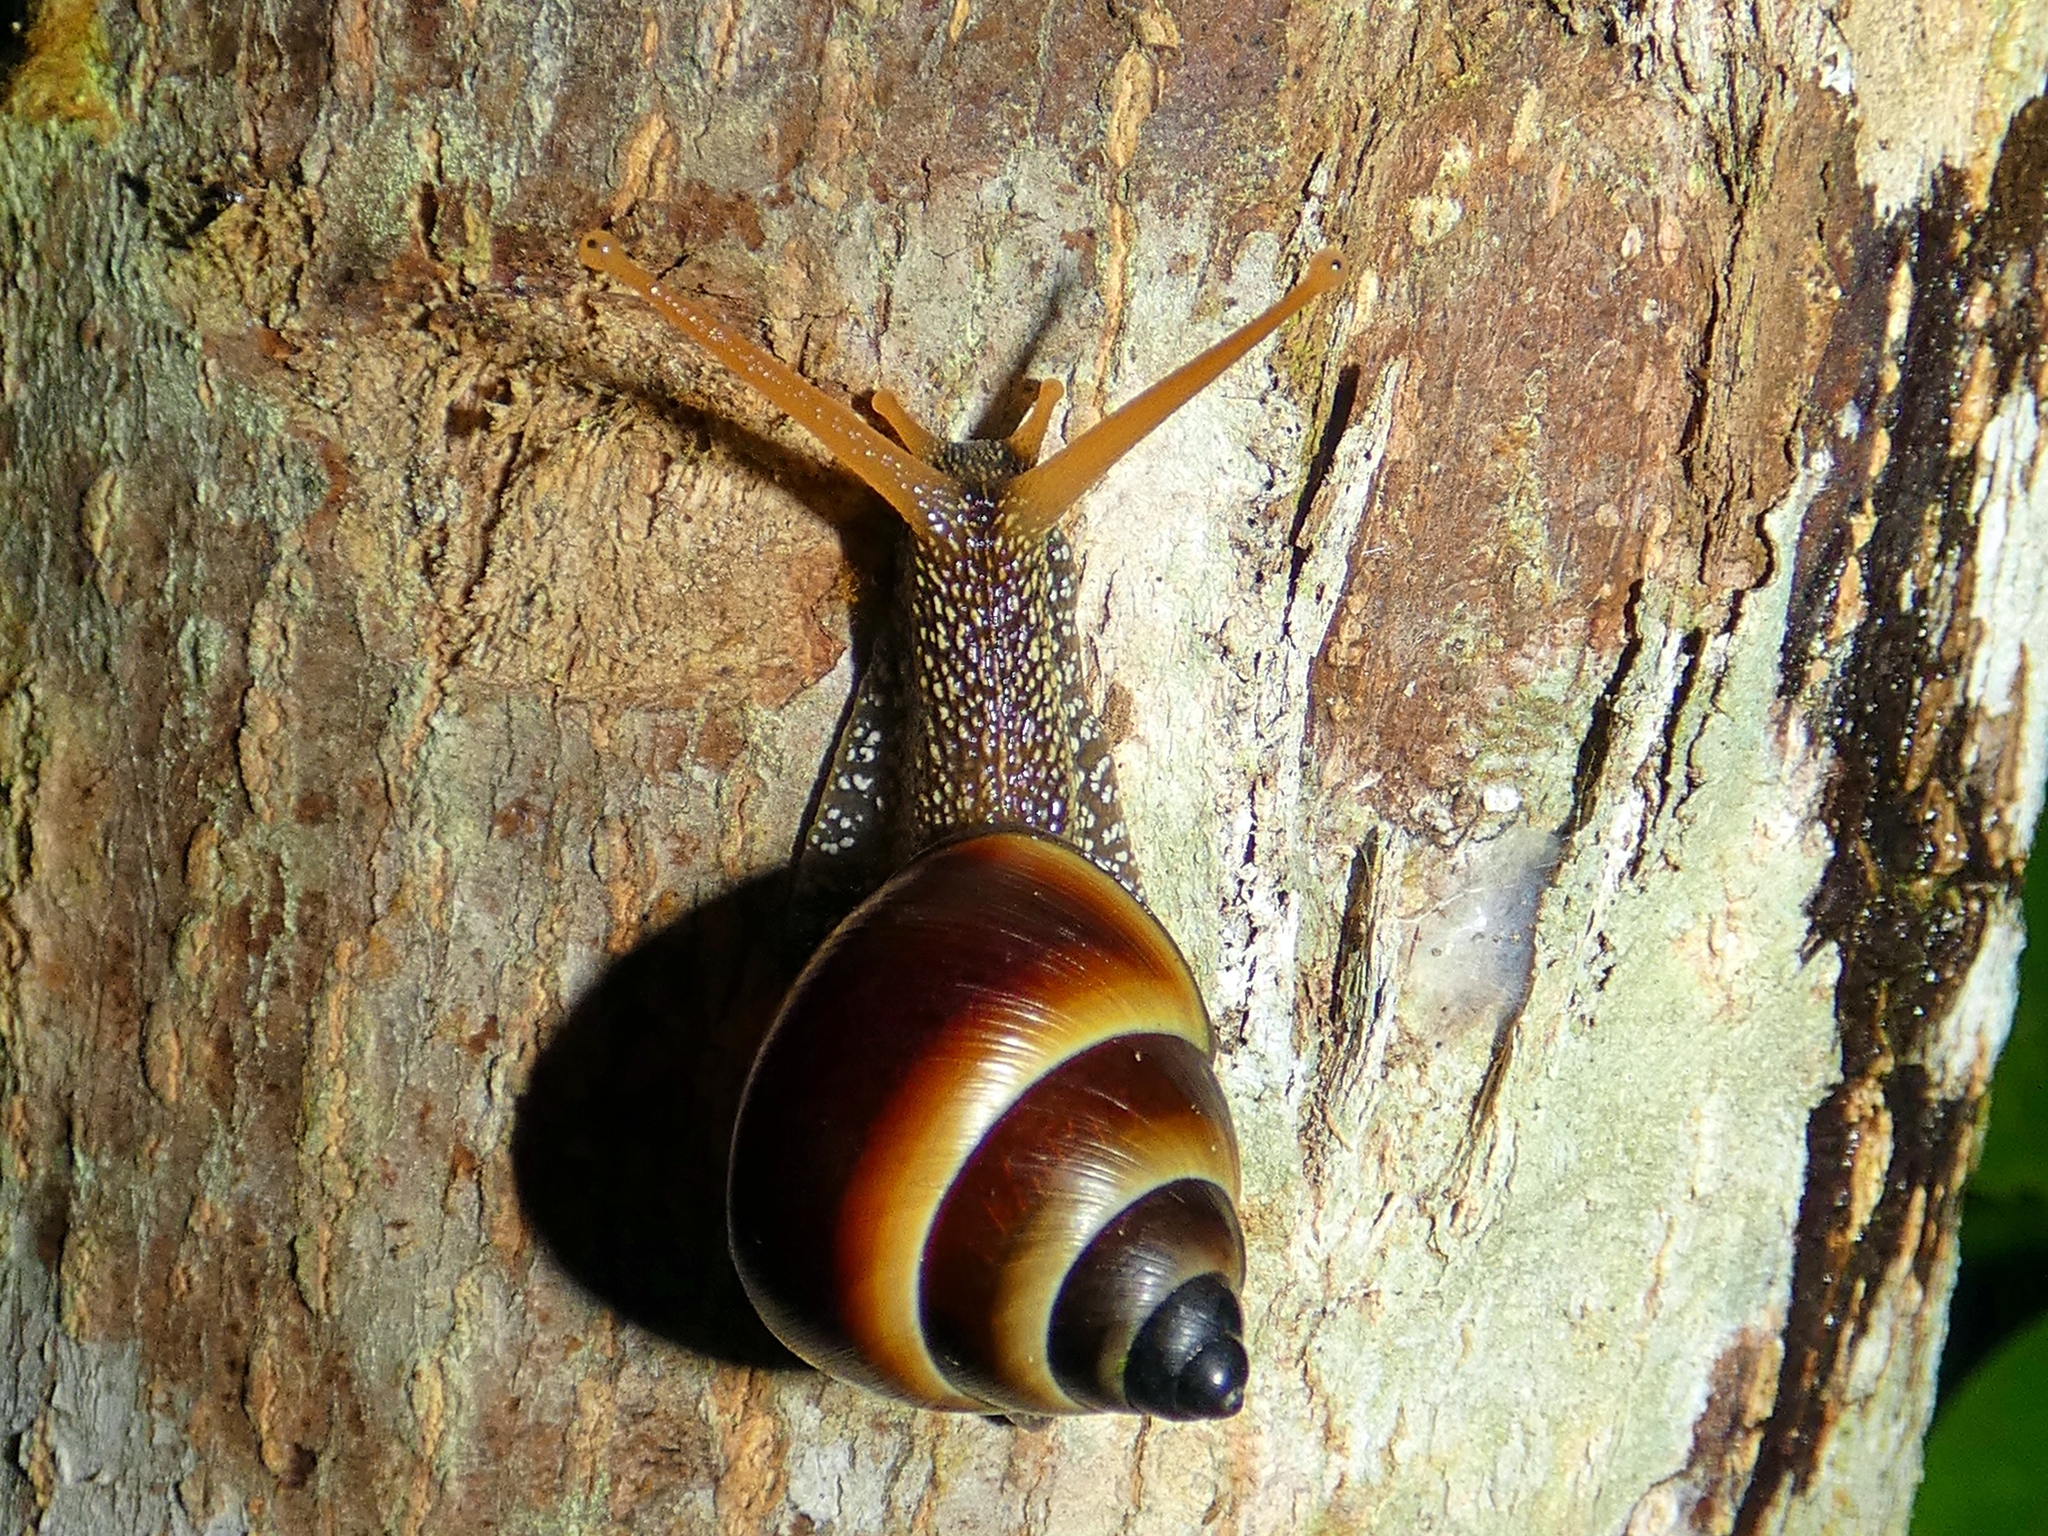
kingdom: Animalia
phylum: Mollusca
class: Gastropoda
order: Stylommatophora
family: Camaenidae
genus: Noctepuna
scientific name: Noctepuna mayana
